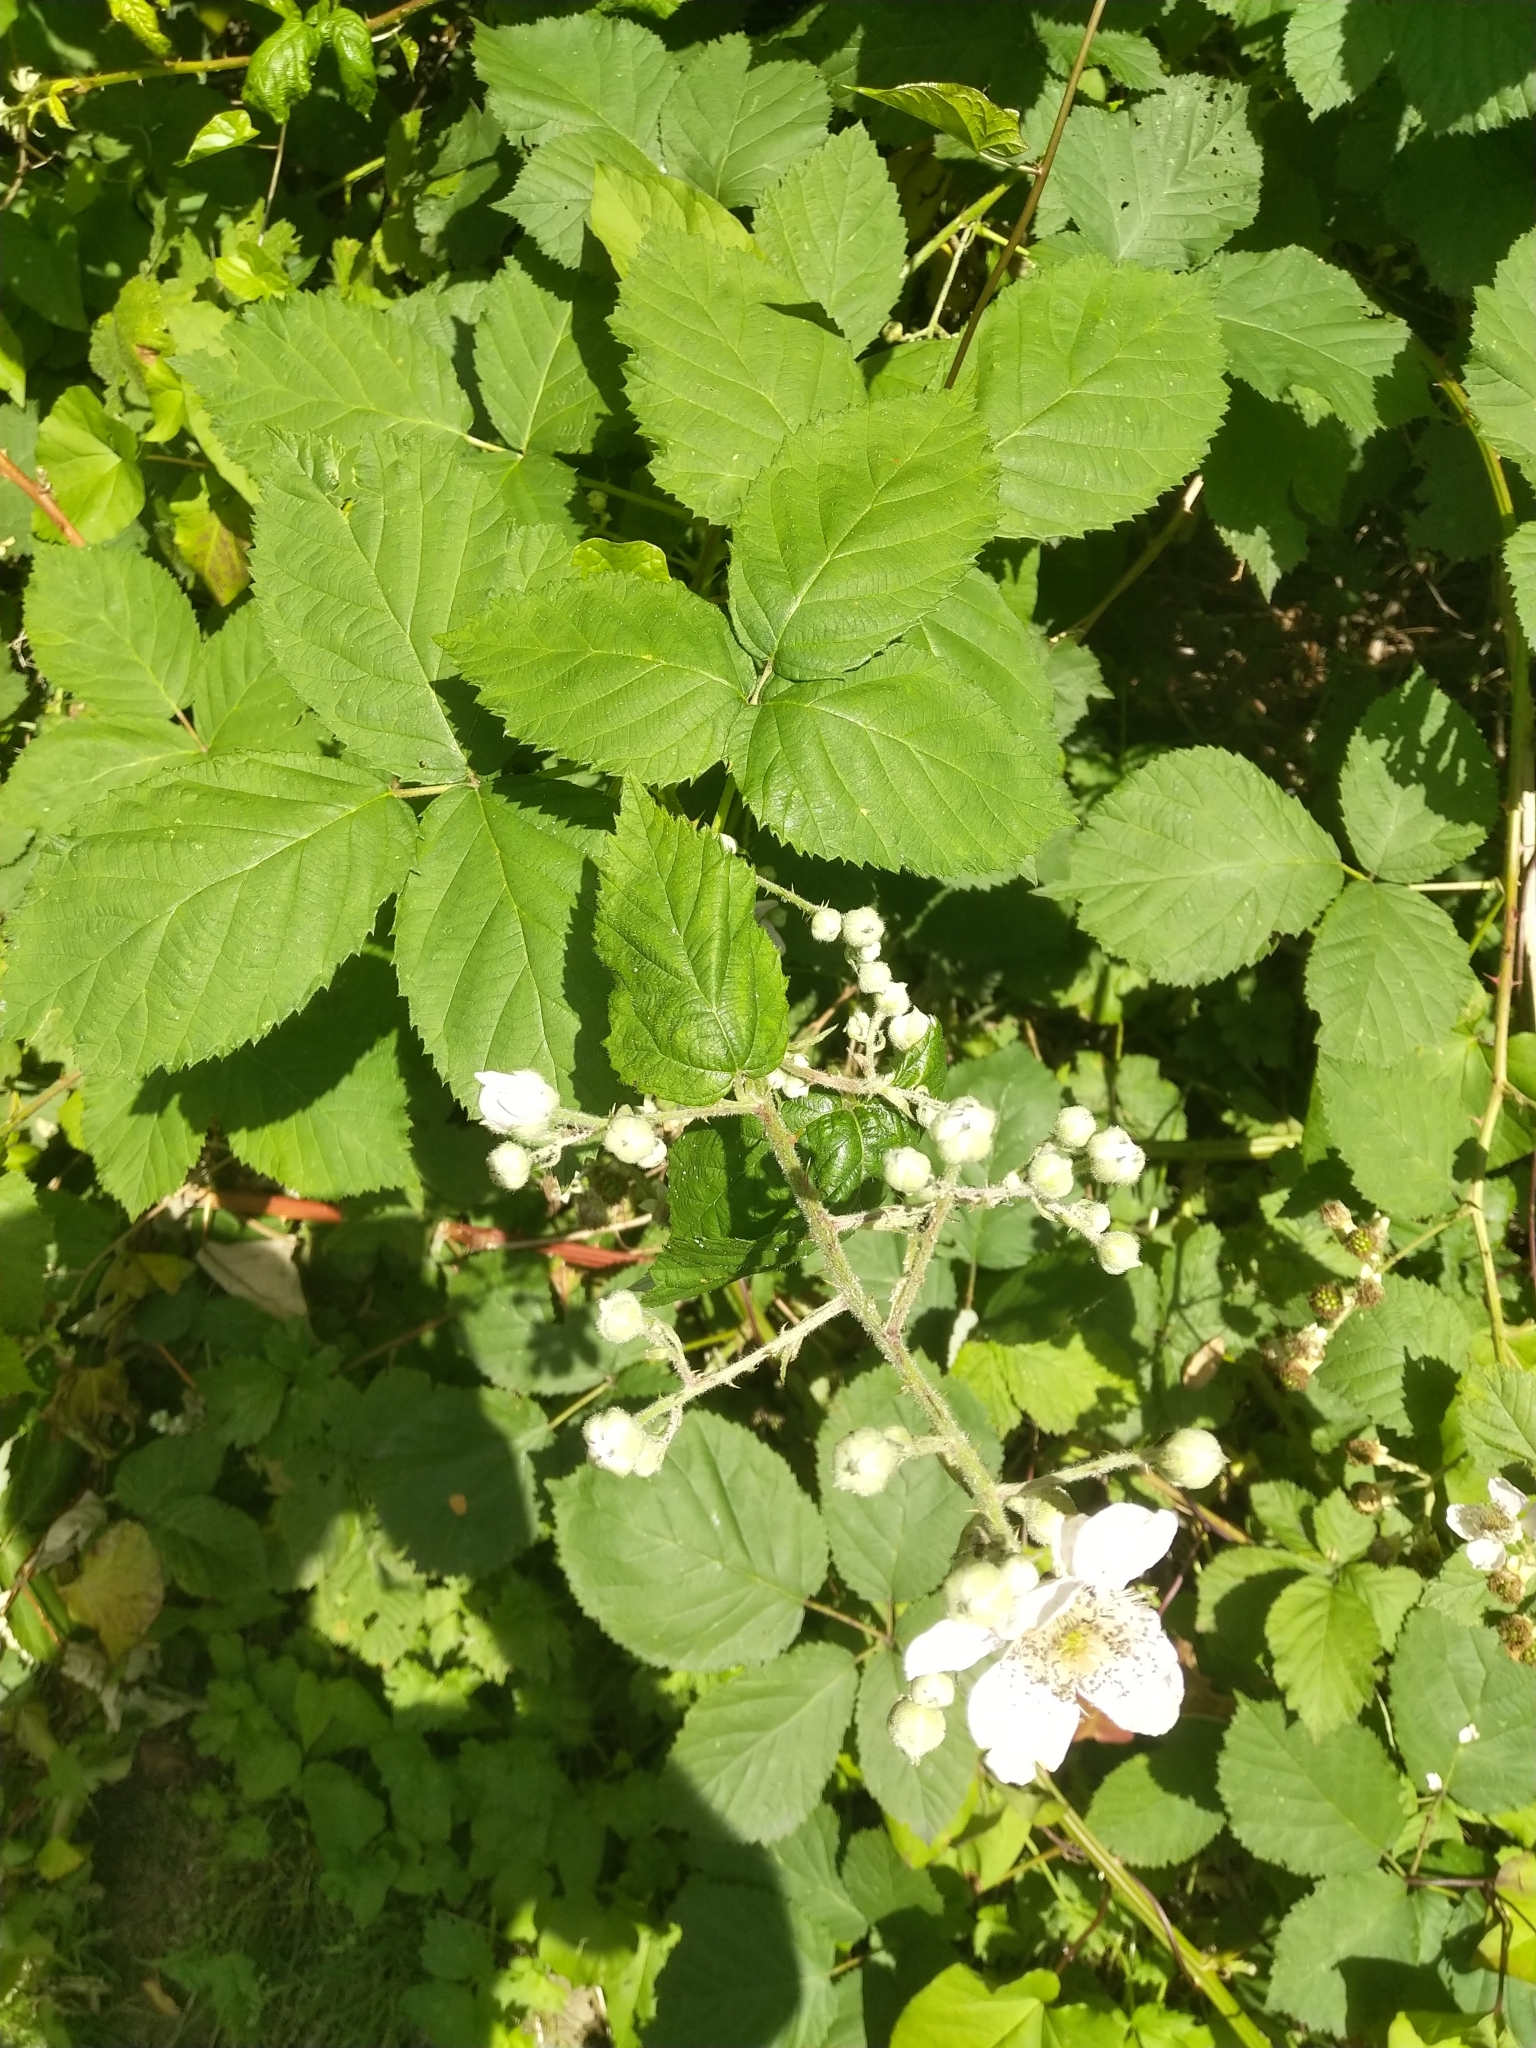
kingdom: Plantae
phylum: Tracheophyta
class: Magnoliopsida
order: Rosales
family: Rosaceae
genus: Rubus
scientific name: Rubus bifrons
